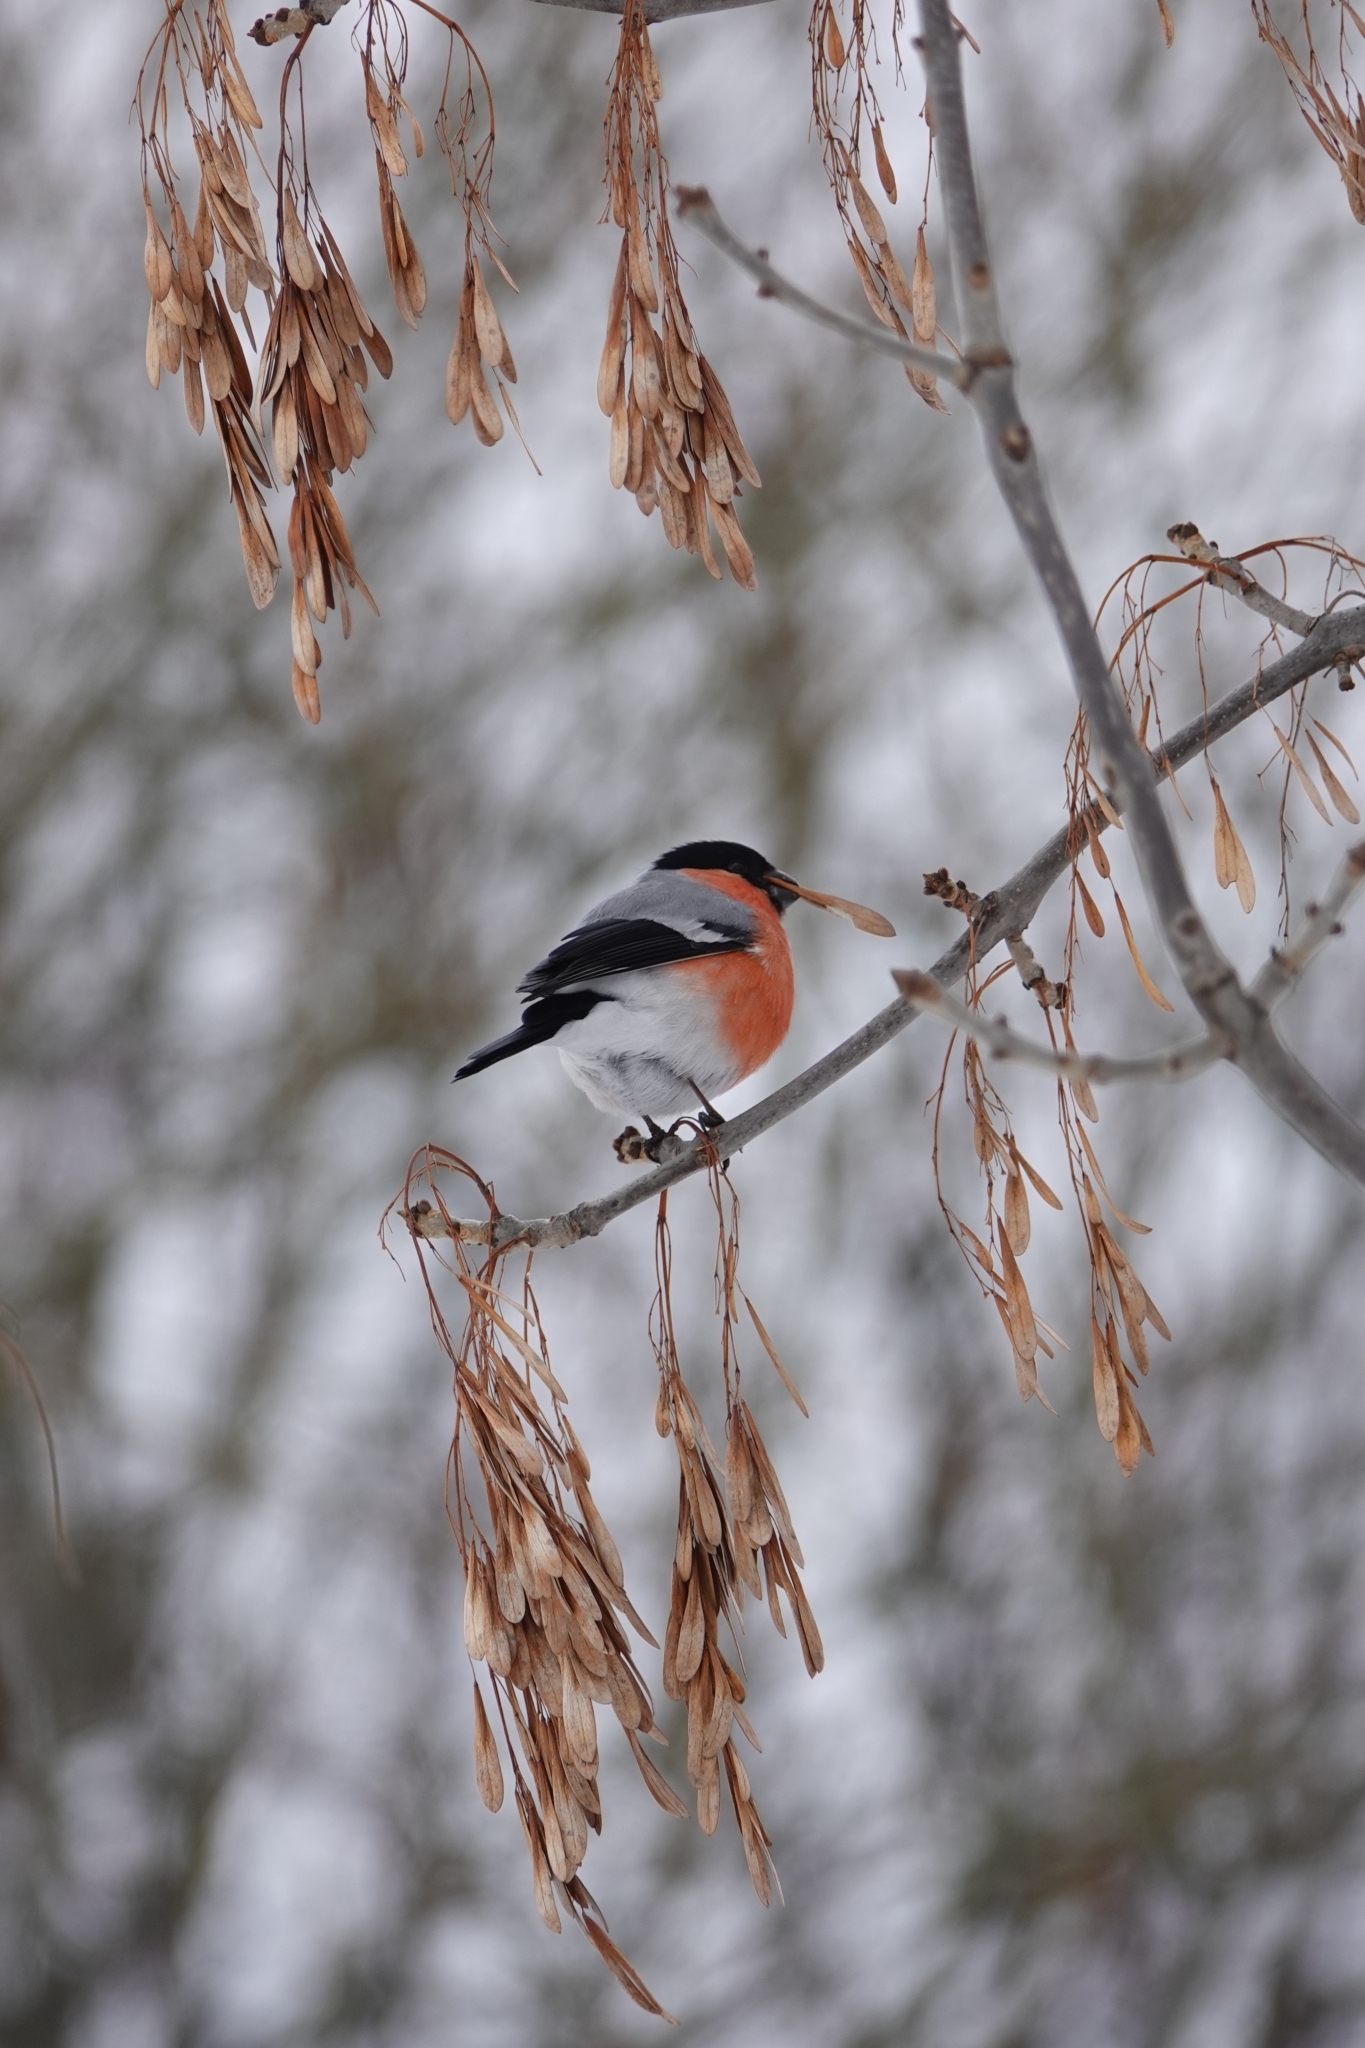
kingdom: Animalia
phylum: Chordata
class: Aves
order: Passeriformes
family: Fringillidae
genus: Pyrrhula
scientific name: Pyrrhula pyrrhula
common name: Eurasian bullfinch
